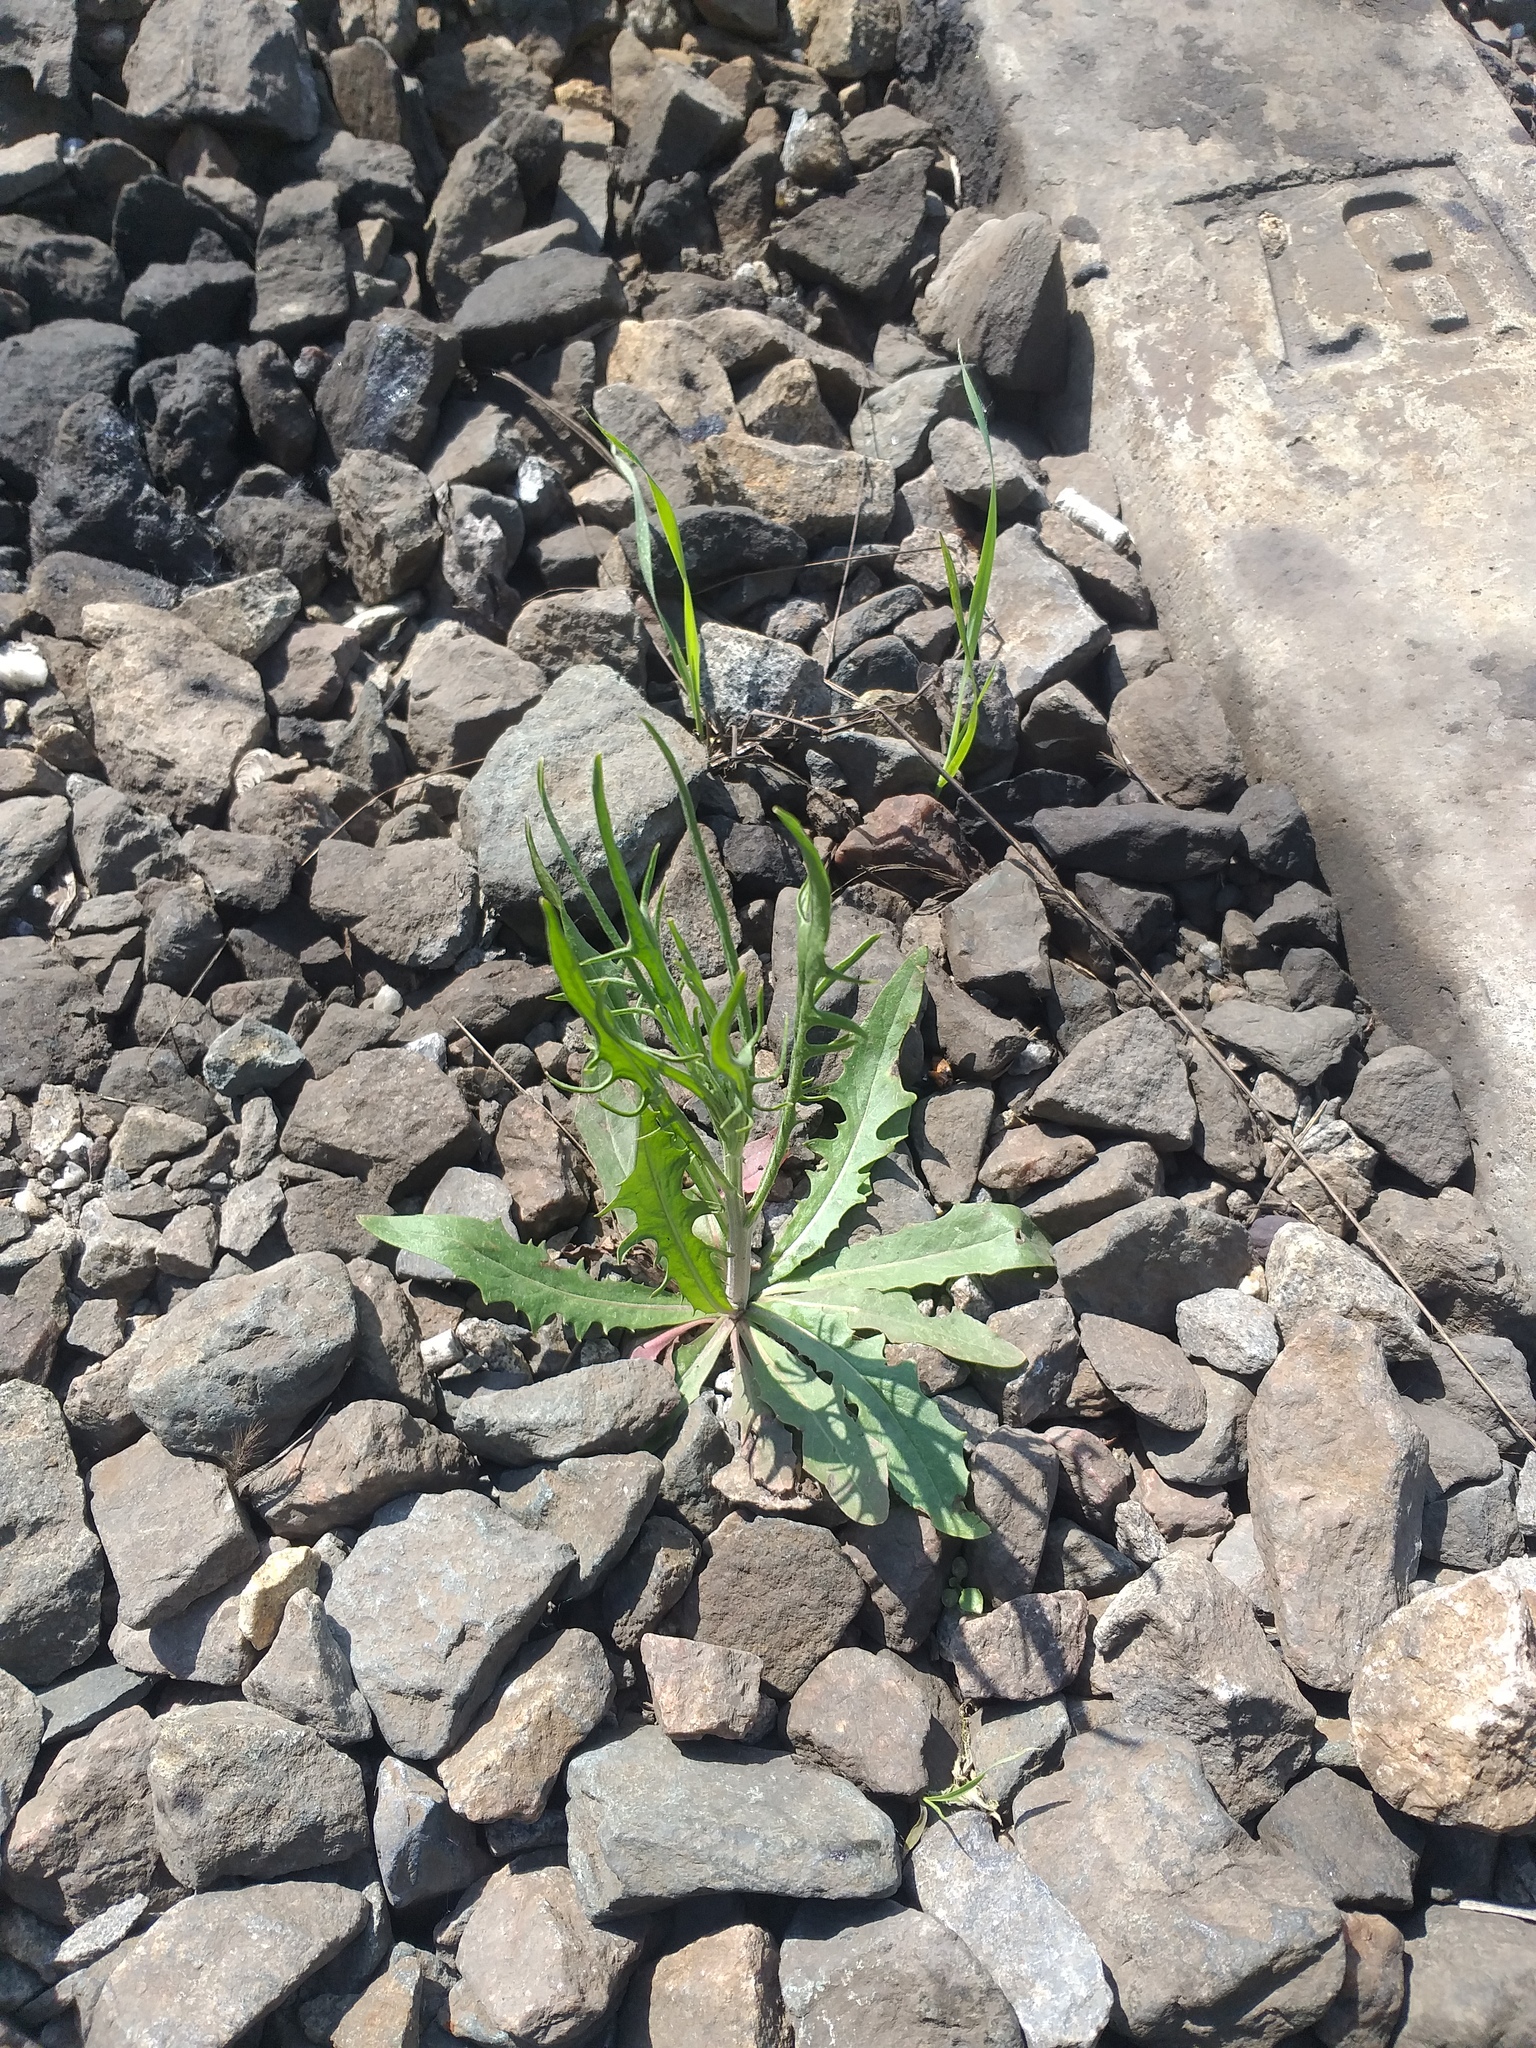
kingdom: Plantae
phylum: Tracheophyta
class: Magnoliopsida
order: Asterales
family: Asteraceae
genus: Crepis
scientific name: Crepis tectorum
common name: Narrow-leaved hawk's-beard
